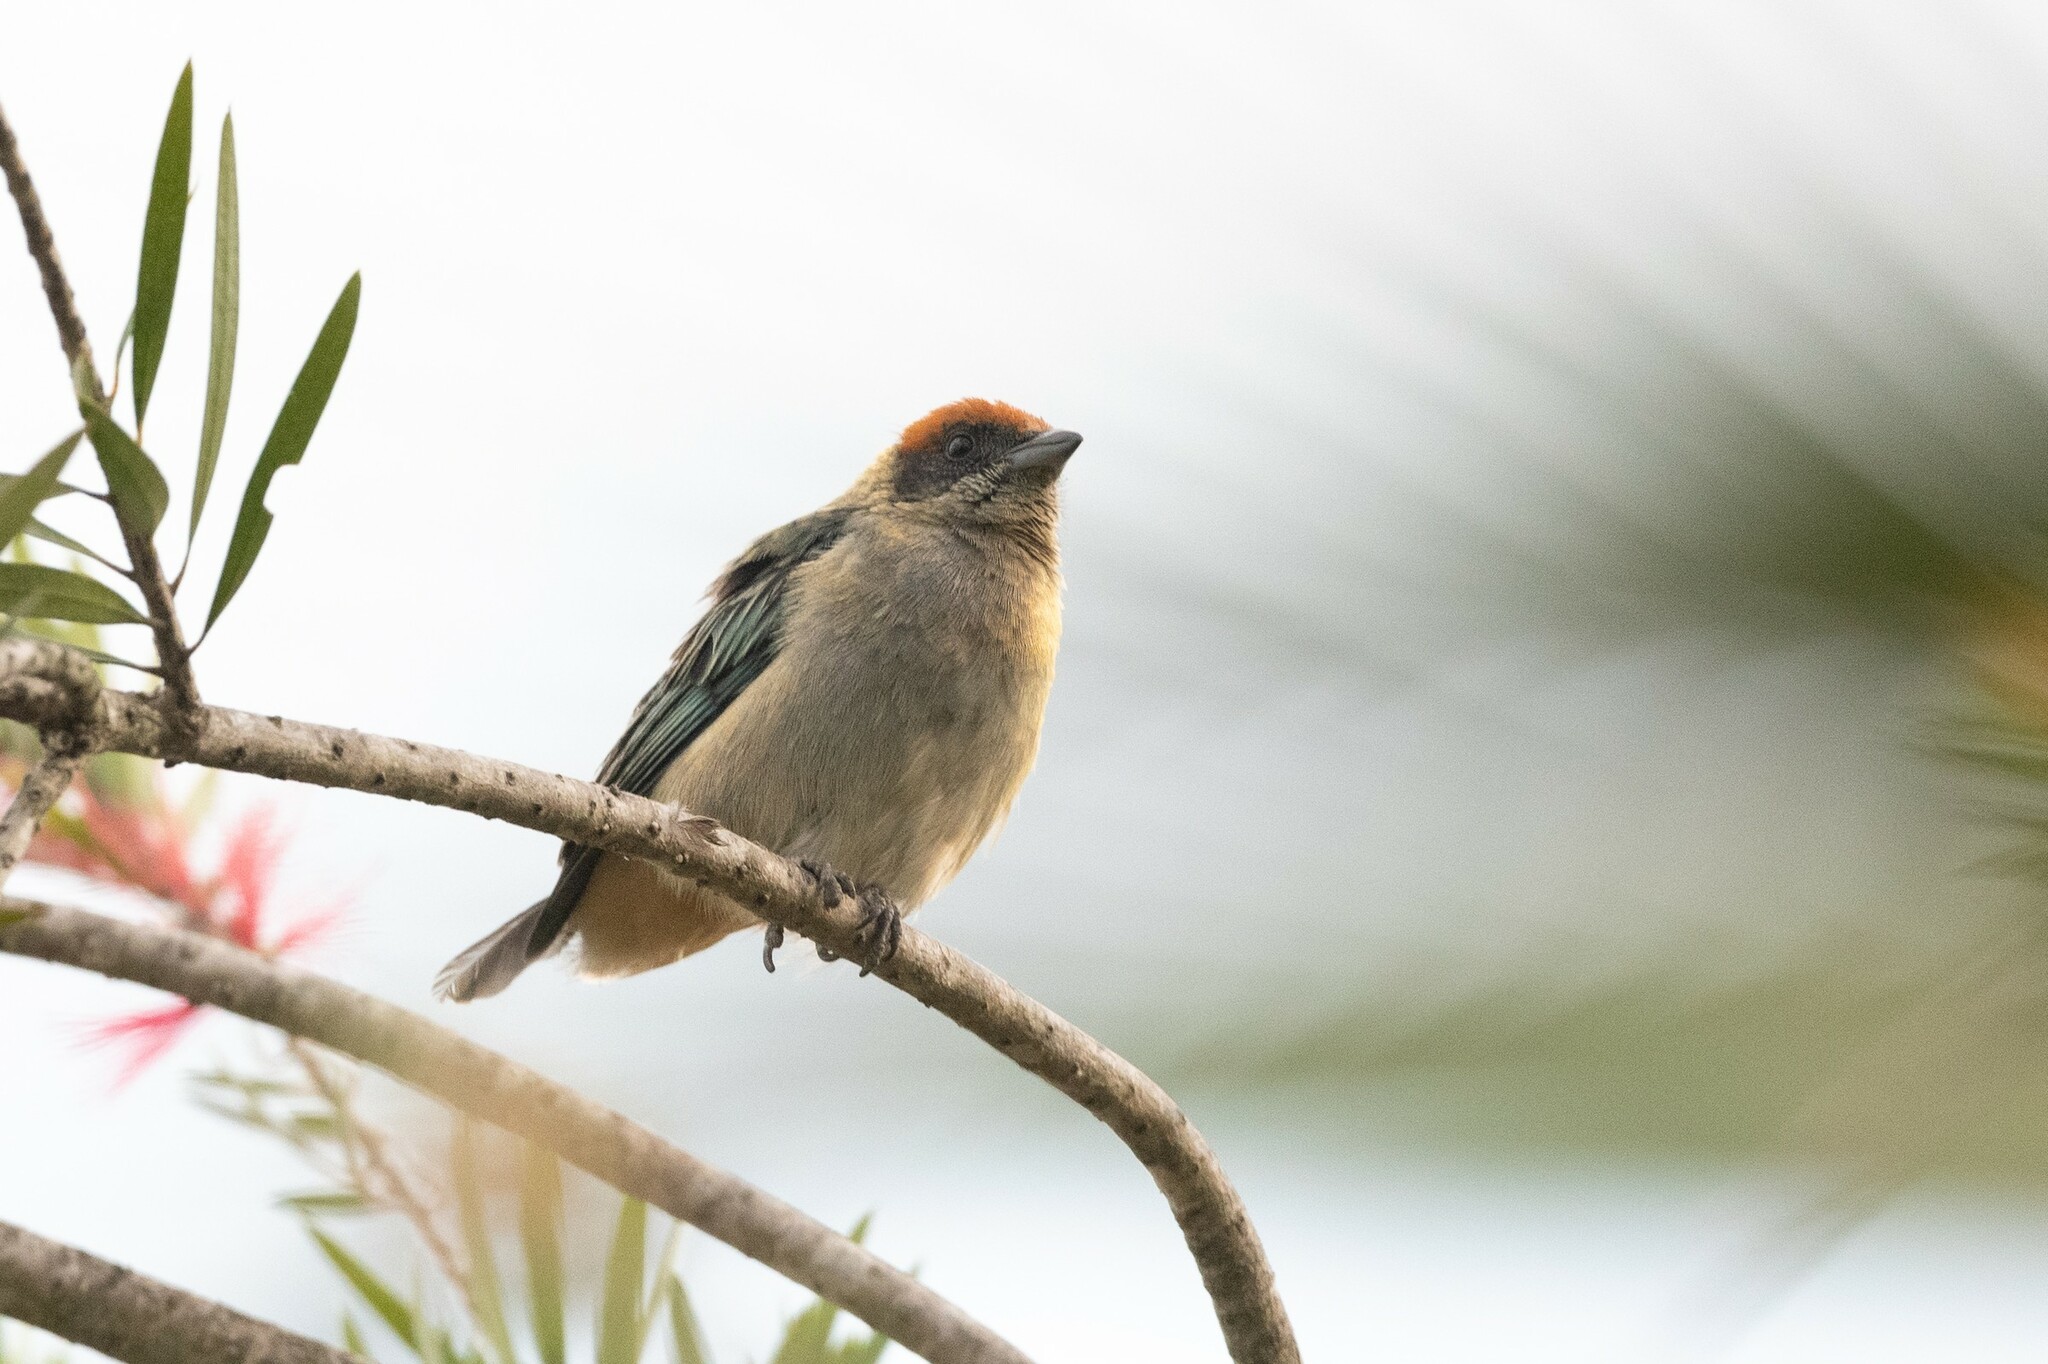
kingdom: Animalia
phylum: Chordata
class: Aves
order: Passeriformes
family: Thraupidae
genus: Stilpnia
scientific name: Stilpnia vitriolina
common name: Scrub tanager
